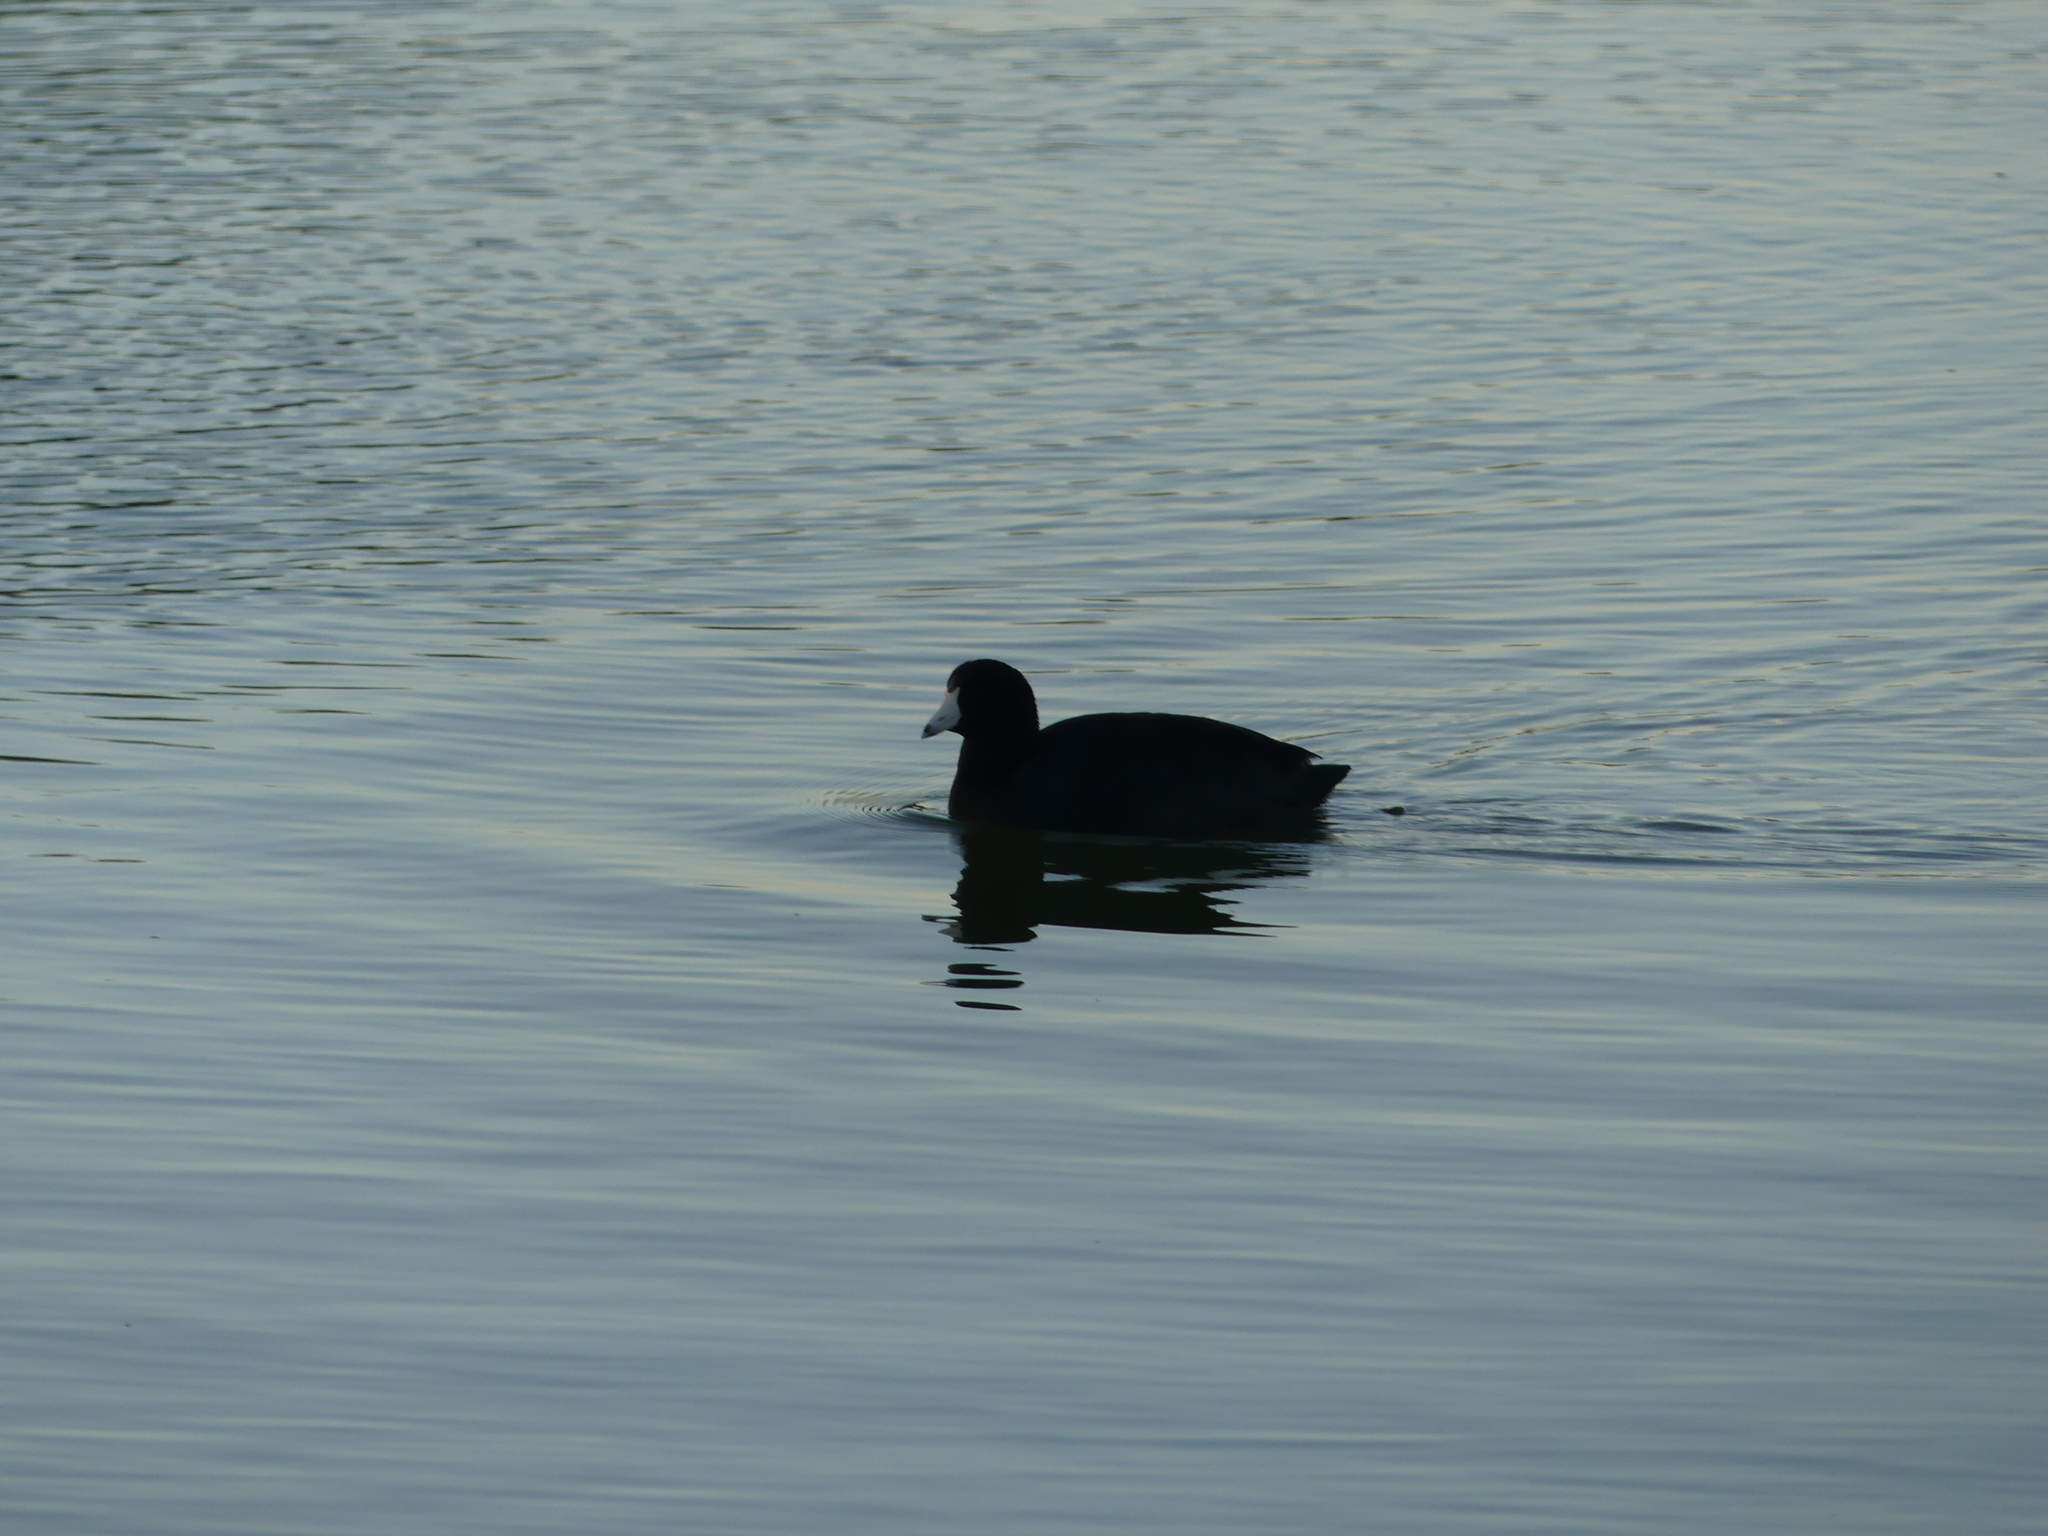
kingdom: Animalia
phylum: Chordata
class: Aves
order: Gruiformes
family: Rallidae
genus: Fulica
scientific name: Fulica americana
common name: American coot
